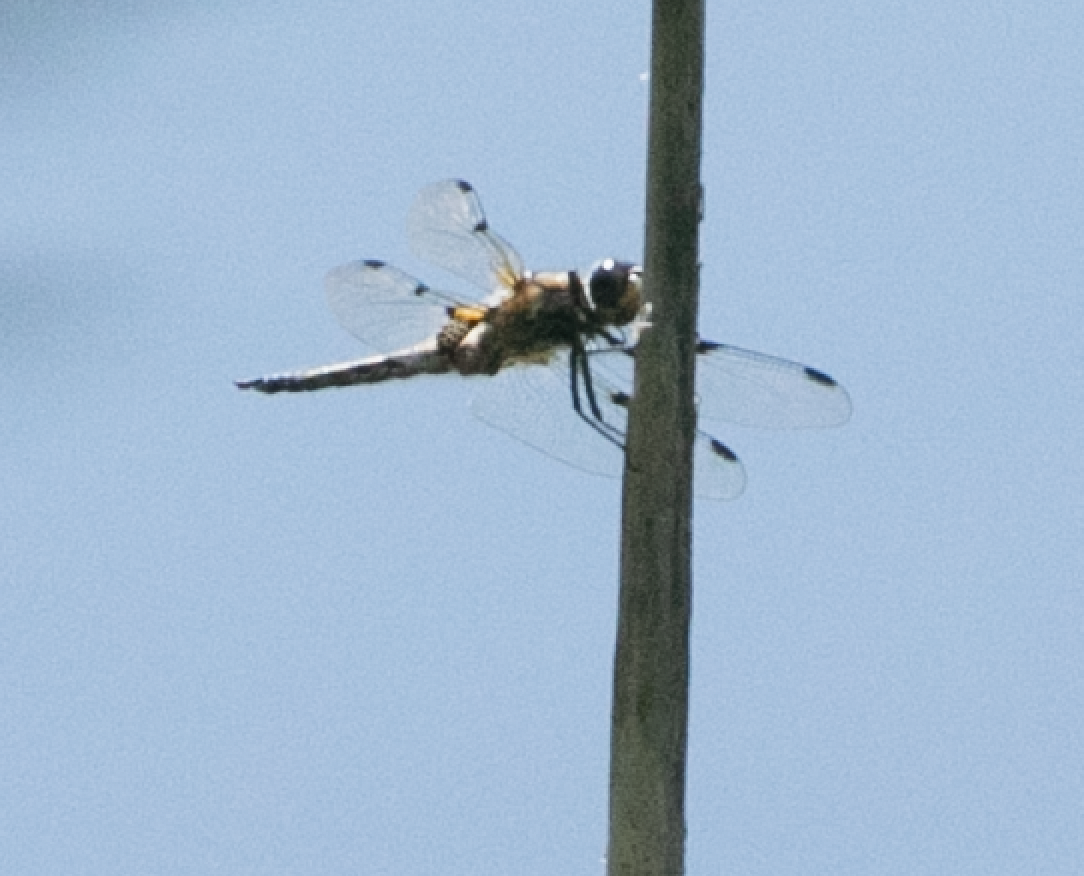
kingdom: Animalia
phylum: Arthropoda
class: Insecta
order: Odonata
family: Libellulidae
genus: Libellula
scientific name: Libellula quadrimaculata
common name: Four-spotted chaser
